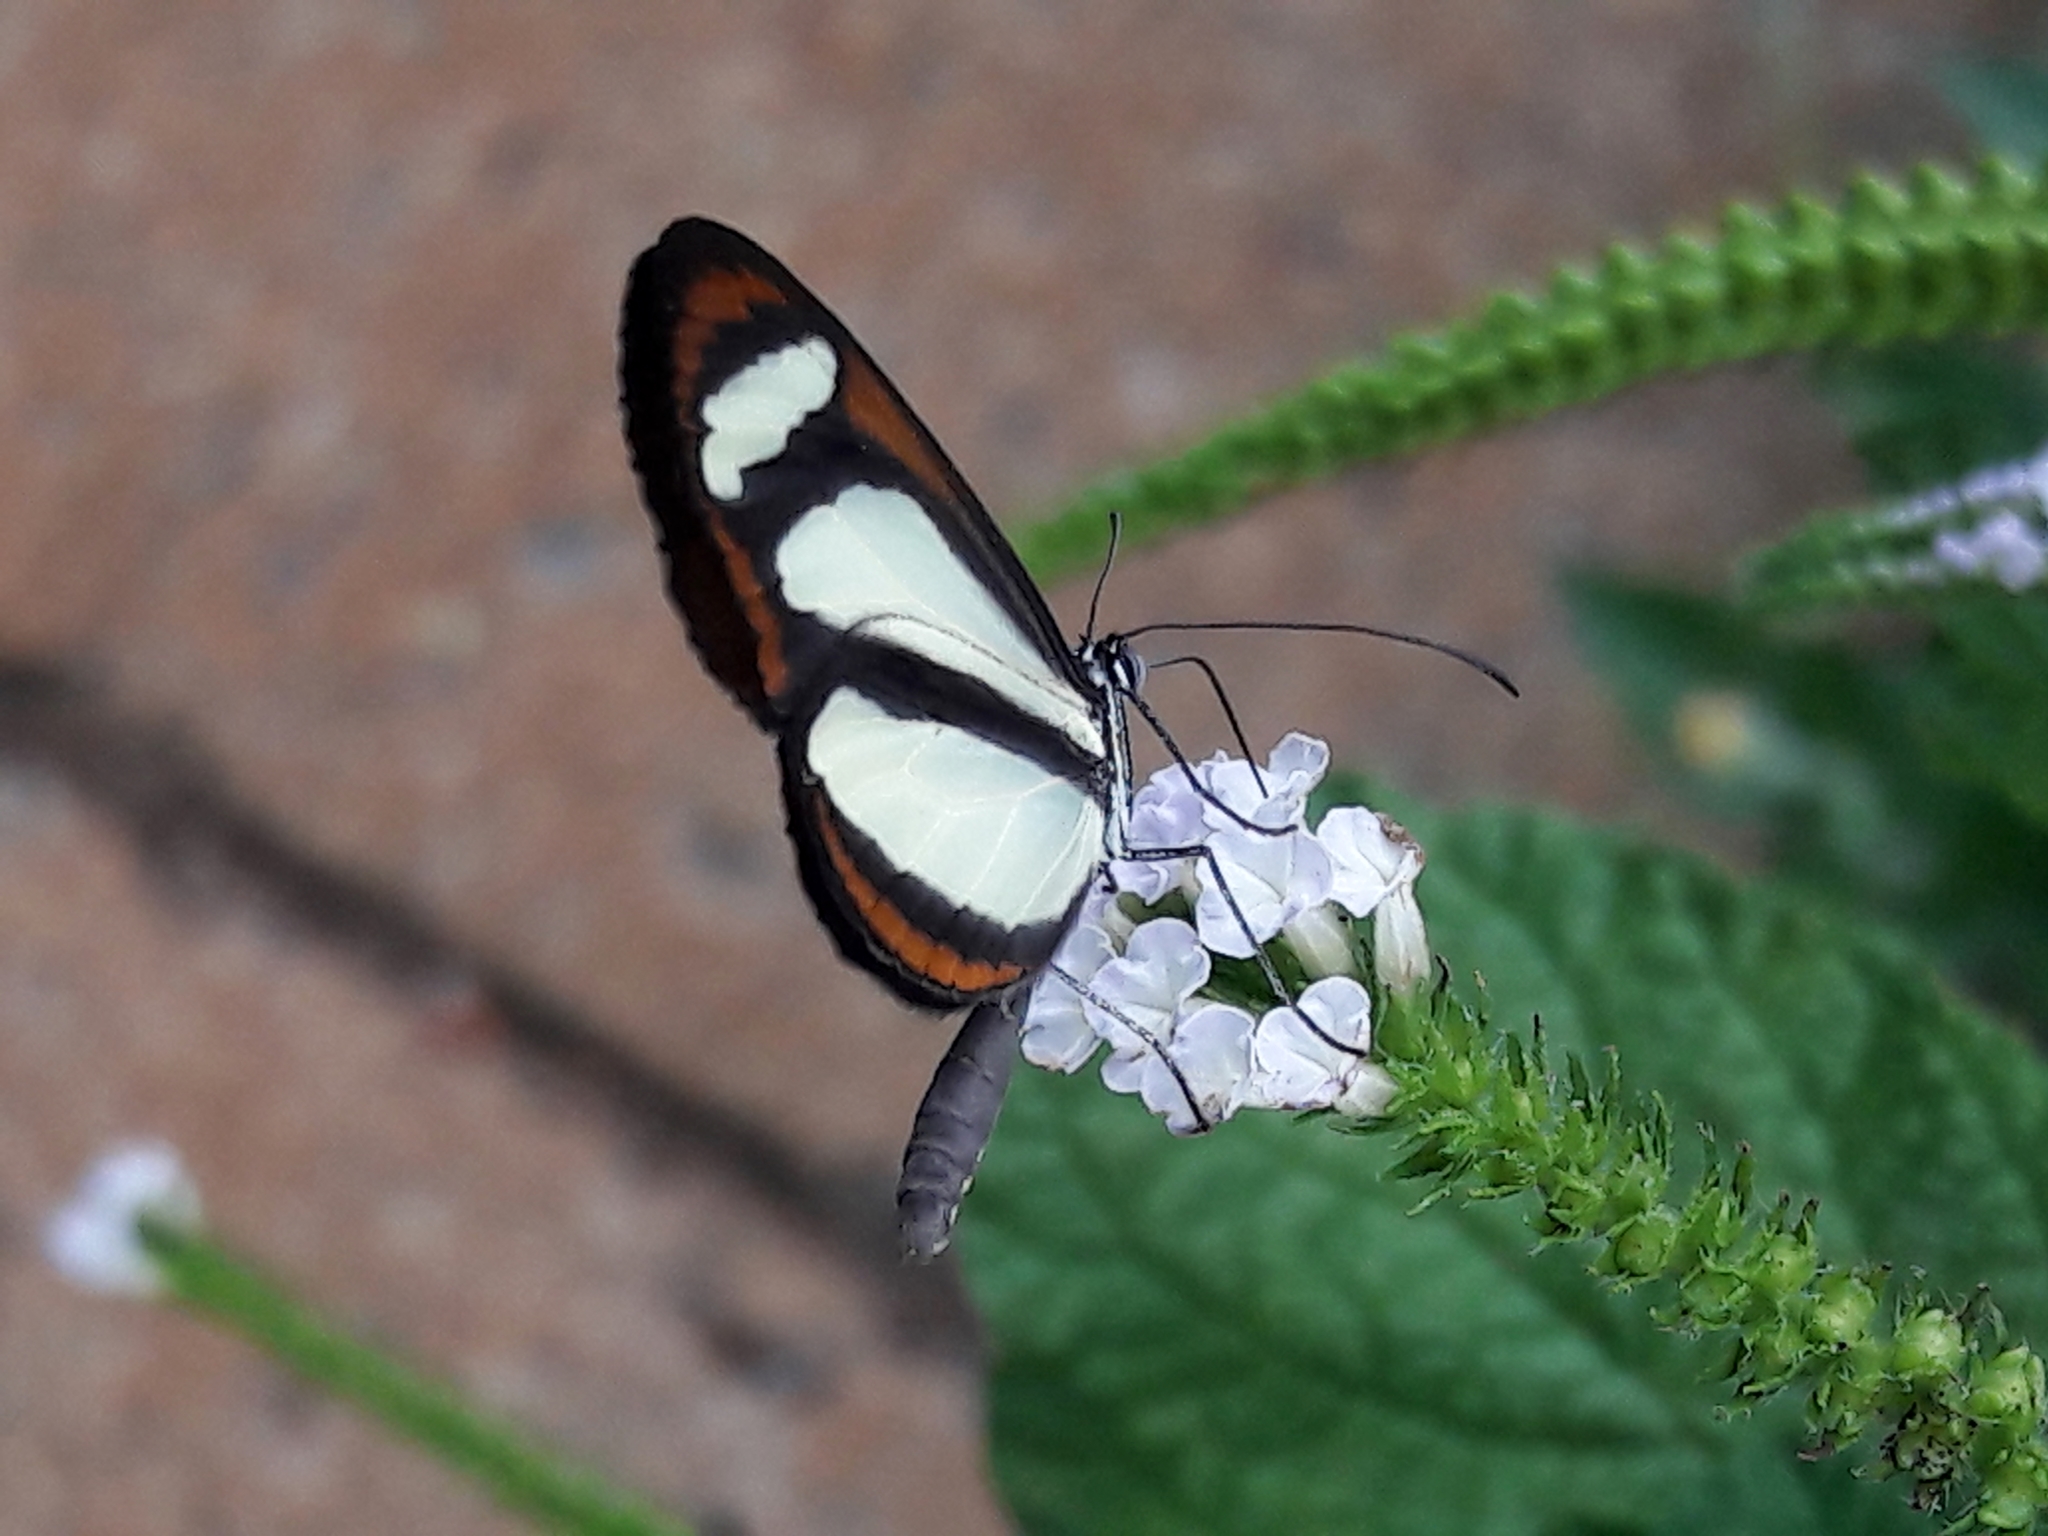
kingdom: Animalia
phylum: Arthropoda
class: Insecta
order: Lepidoptera
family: Nymphalidae
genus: Aeria
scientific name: Aeria elara
